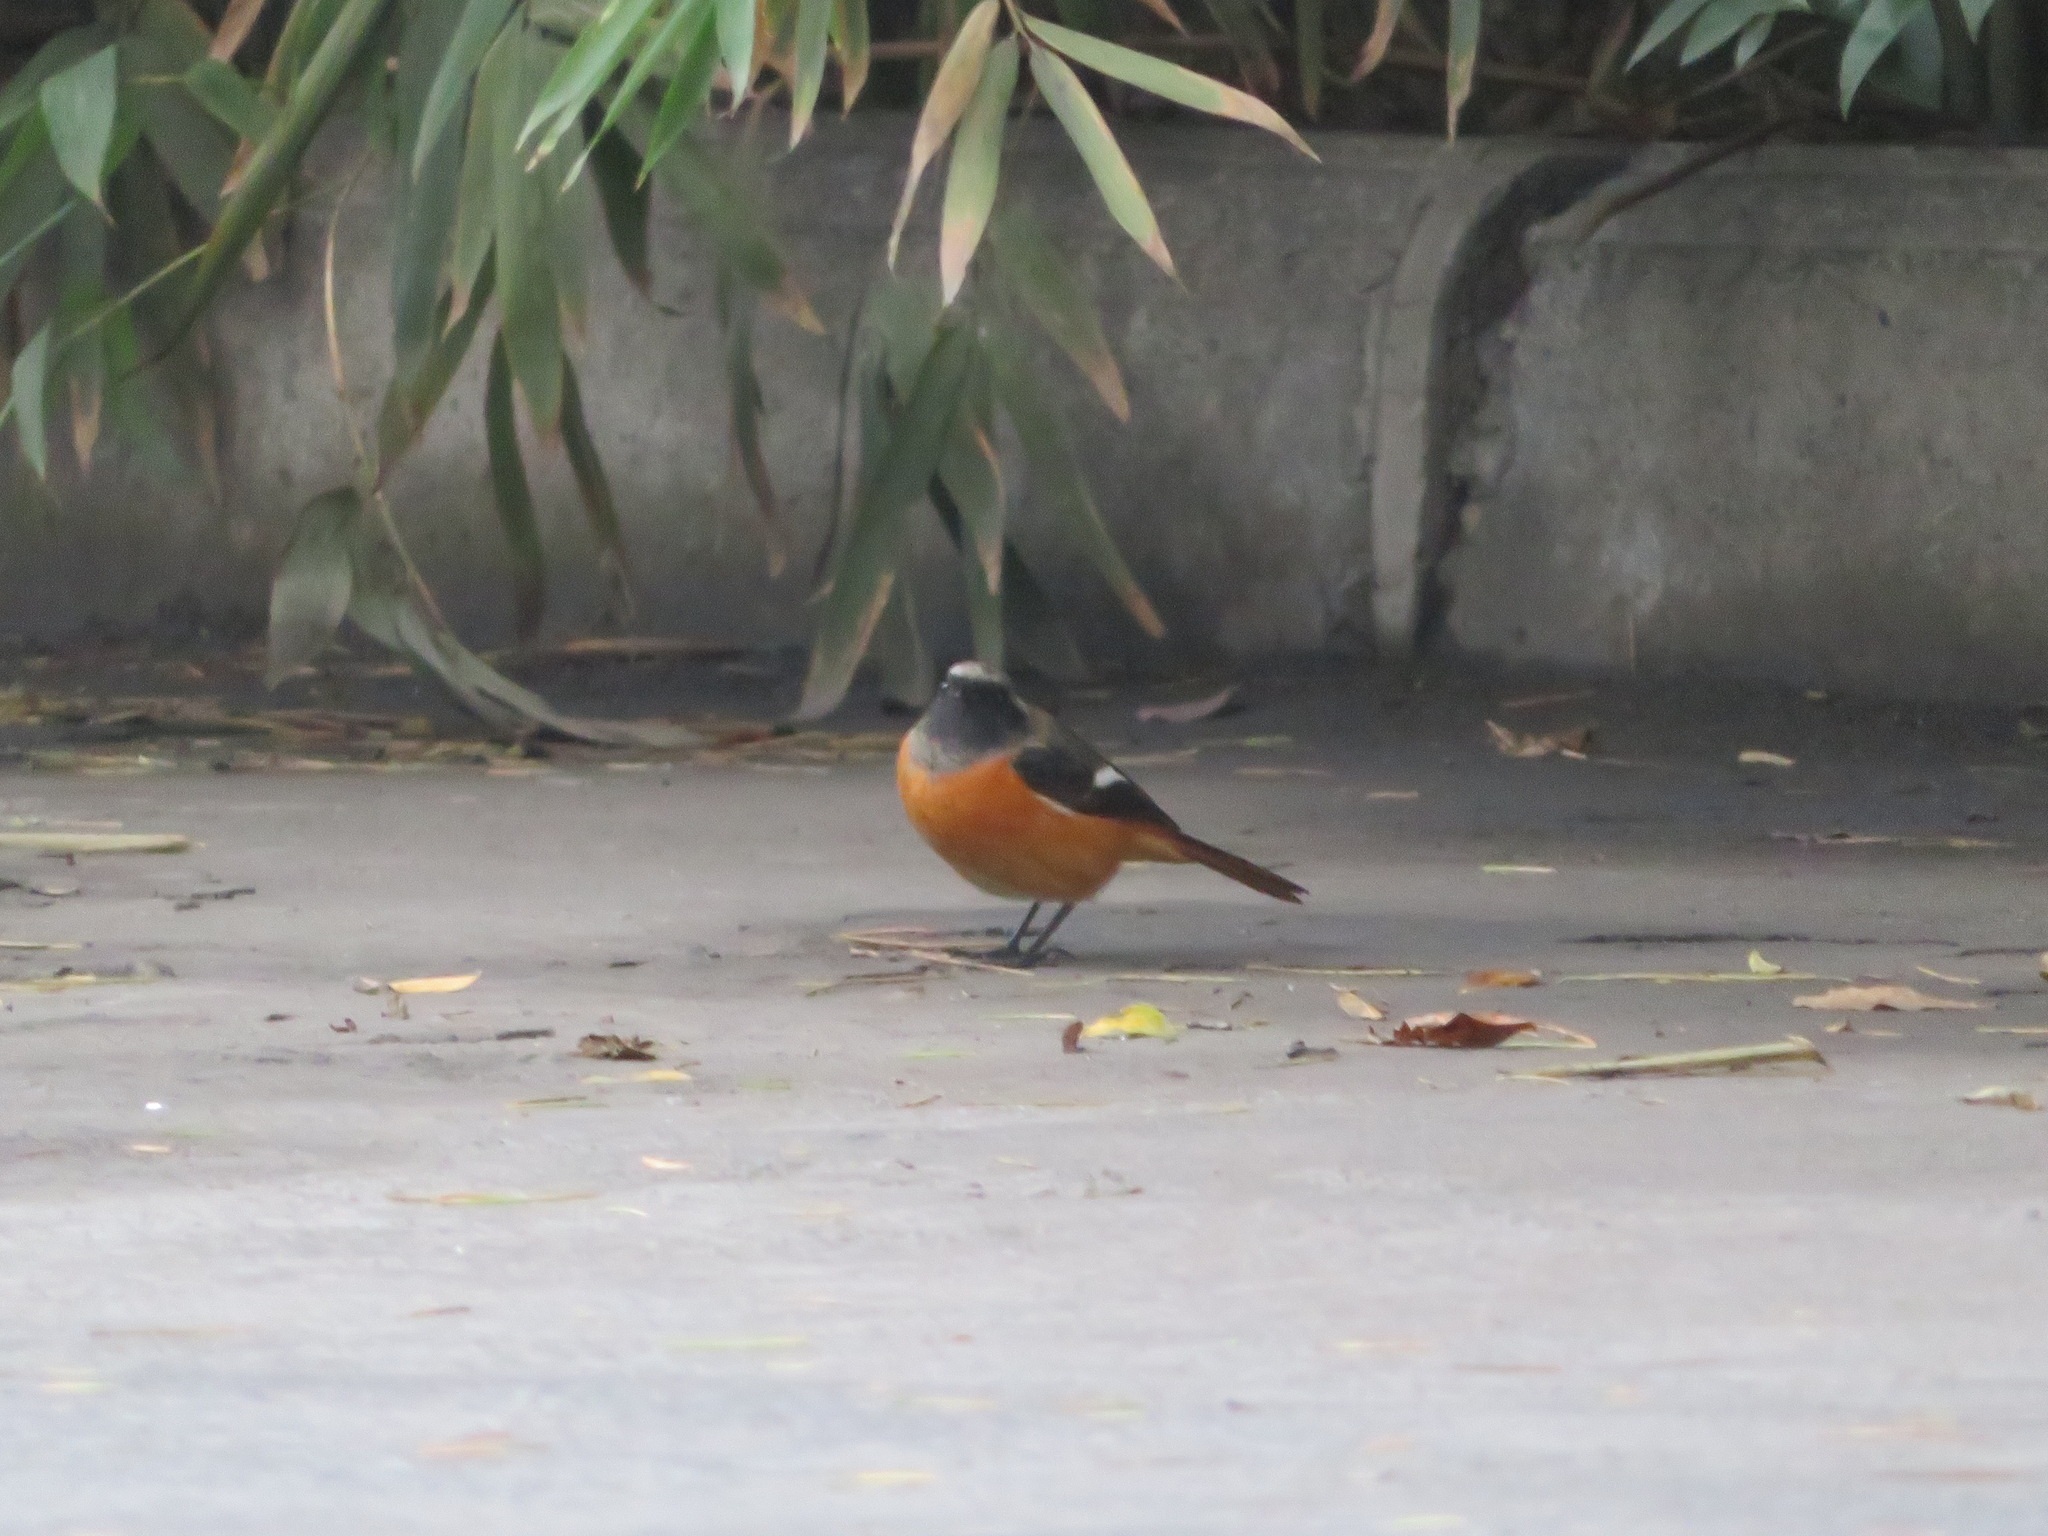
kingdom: Animalia
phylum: Chordata
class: Aves
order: Passeriformes
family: Muscicapidae
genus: Phoenicurus
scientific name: Phoenicurus auroreus
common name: Daurian redstart
